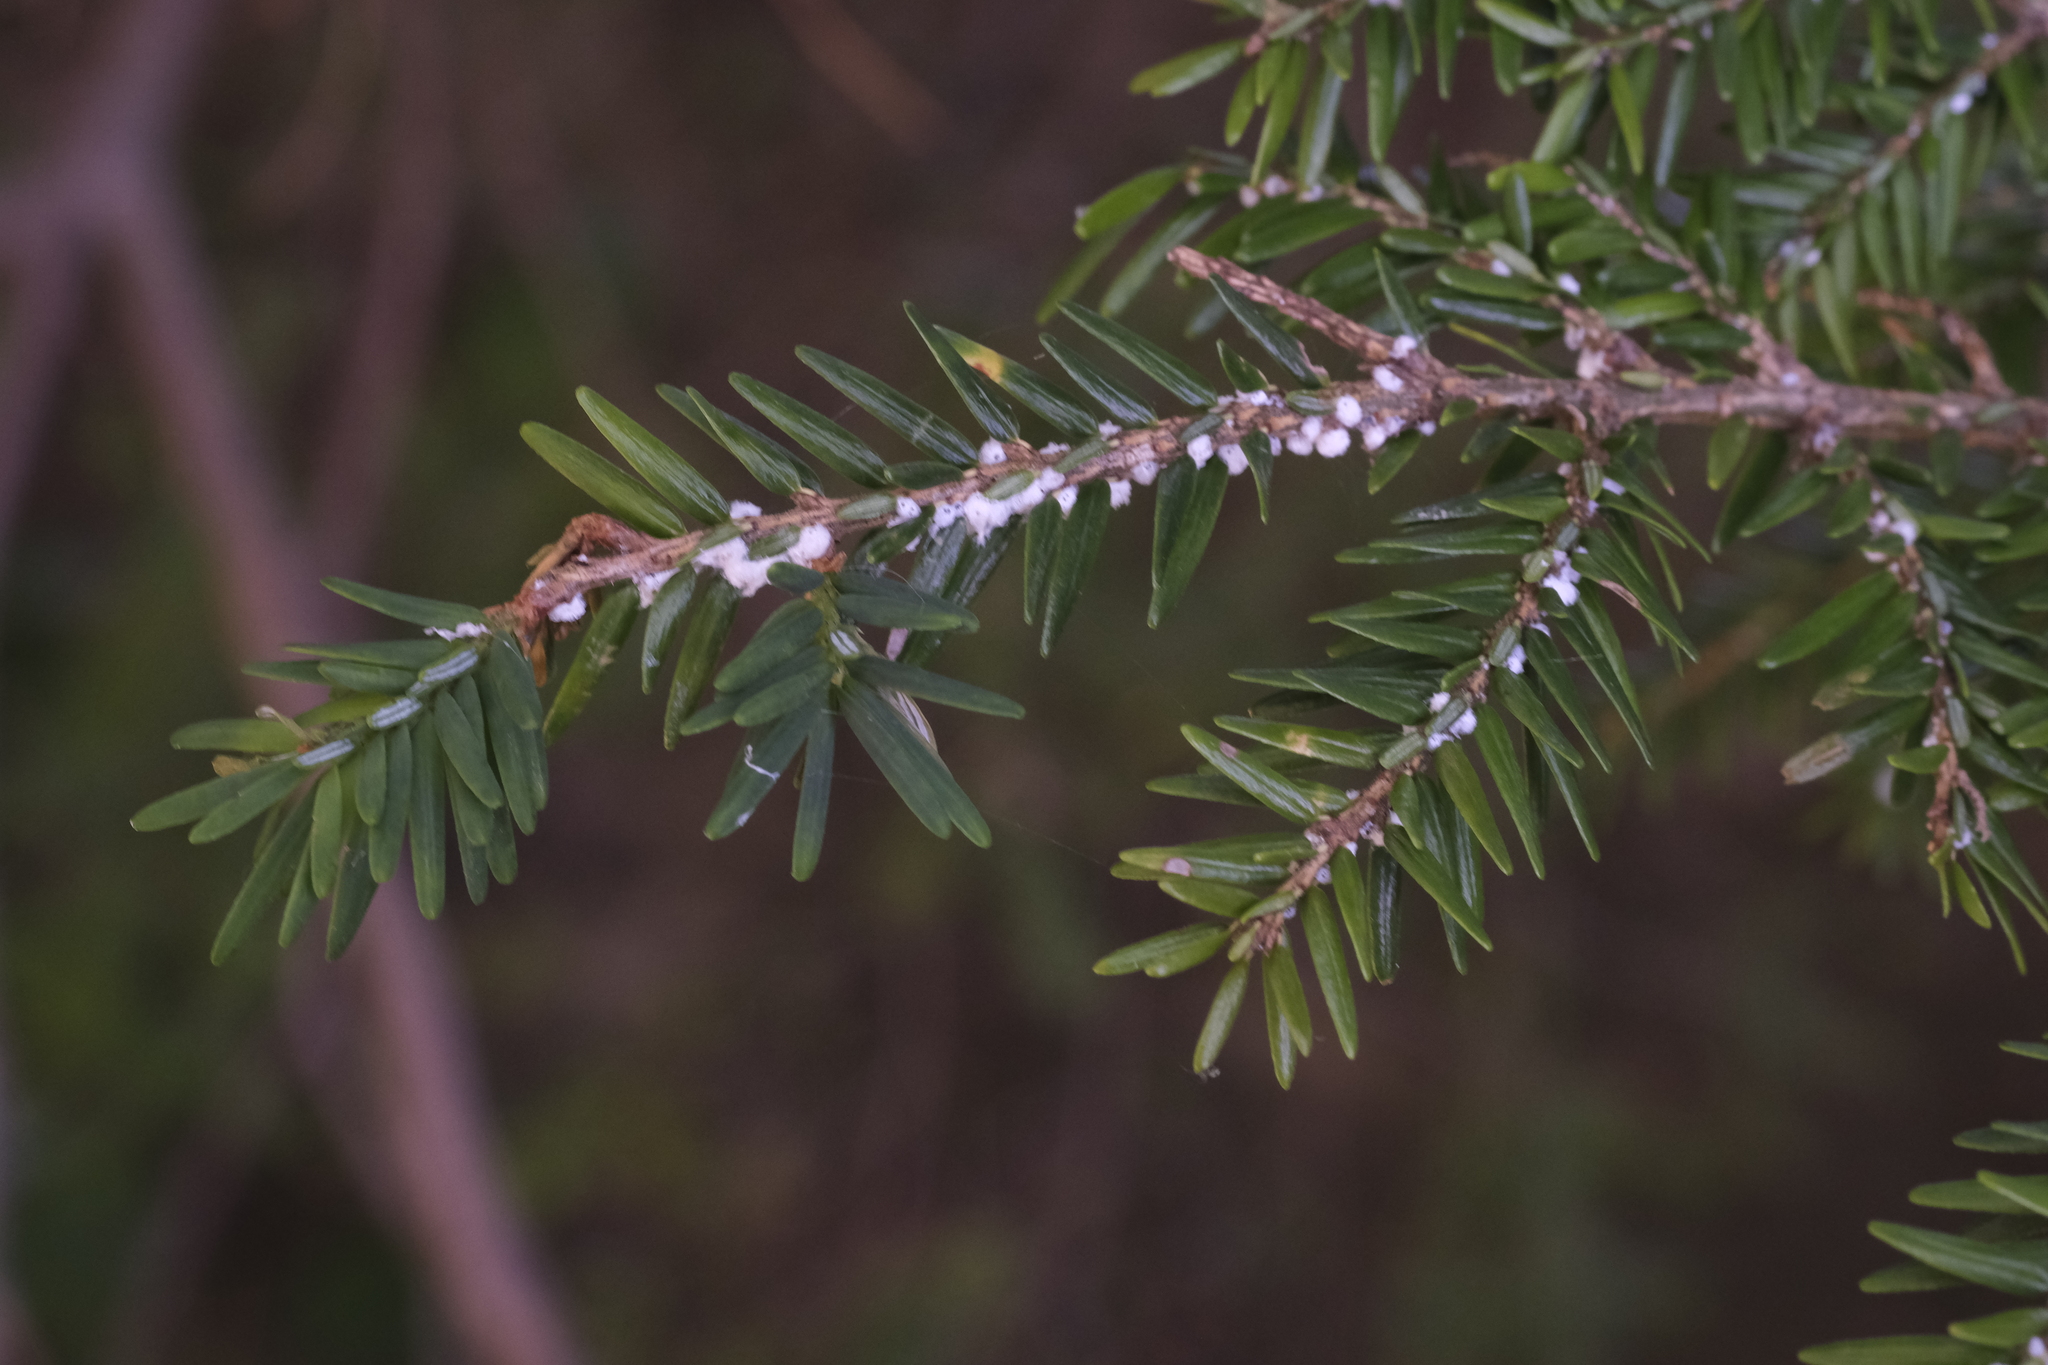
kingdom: Animalia
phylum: Arthropoda
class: Insecta
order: Hemiptera
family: Adelgidae
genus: Adelges
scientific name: Adelges tsugae
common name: Hemlock woolly adelgid
